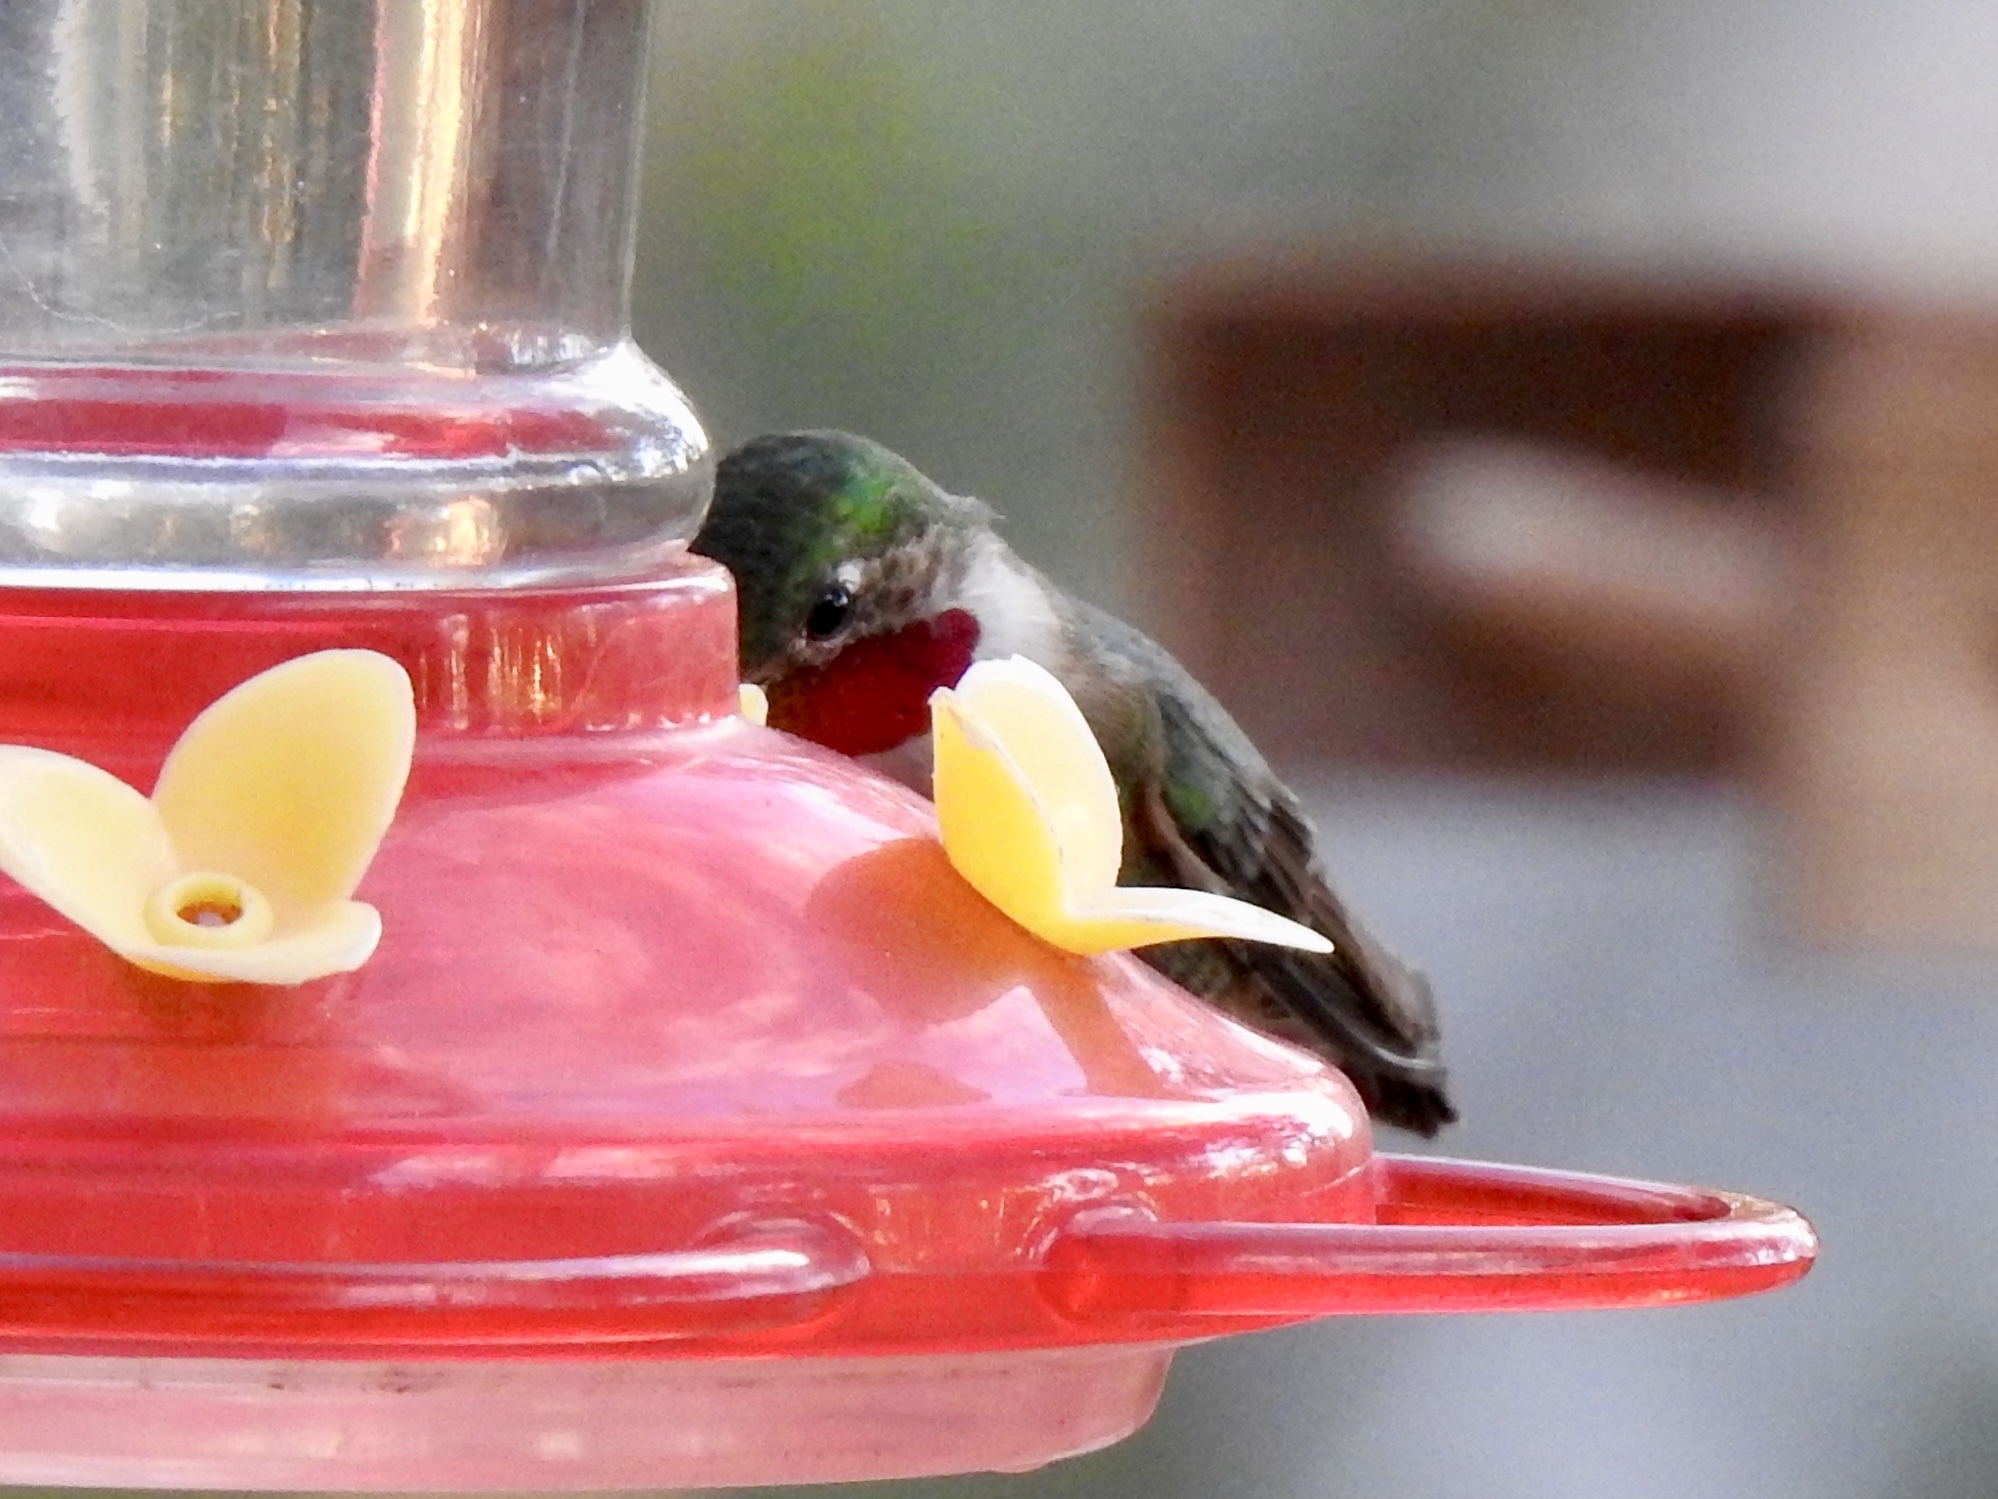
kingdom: Animalia
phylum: Chordata
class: Aves
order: Apodiformes
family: Trochilidae
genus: Selasphorus
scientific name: Selasphorus platycercus
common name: Broad-tailed hummingbird
